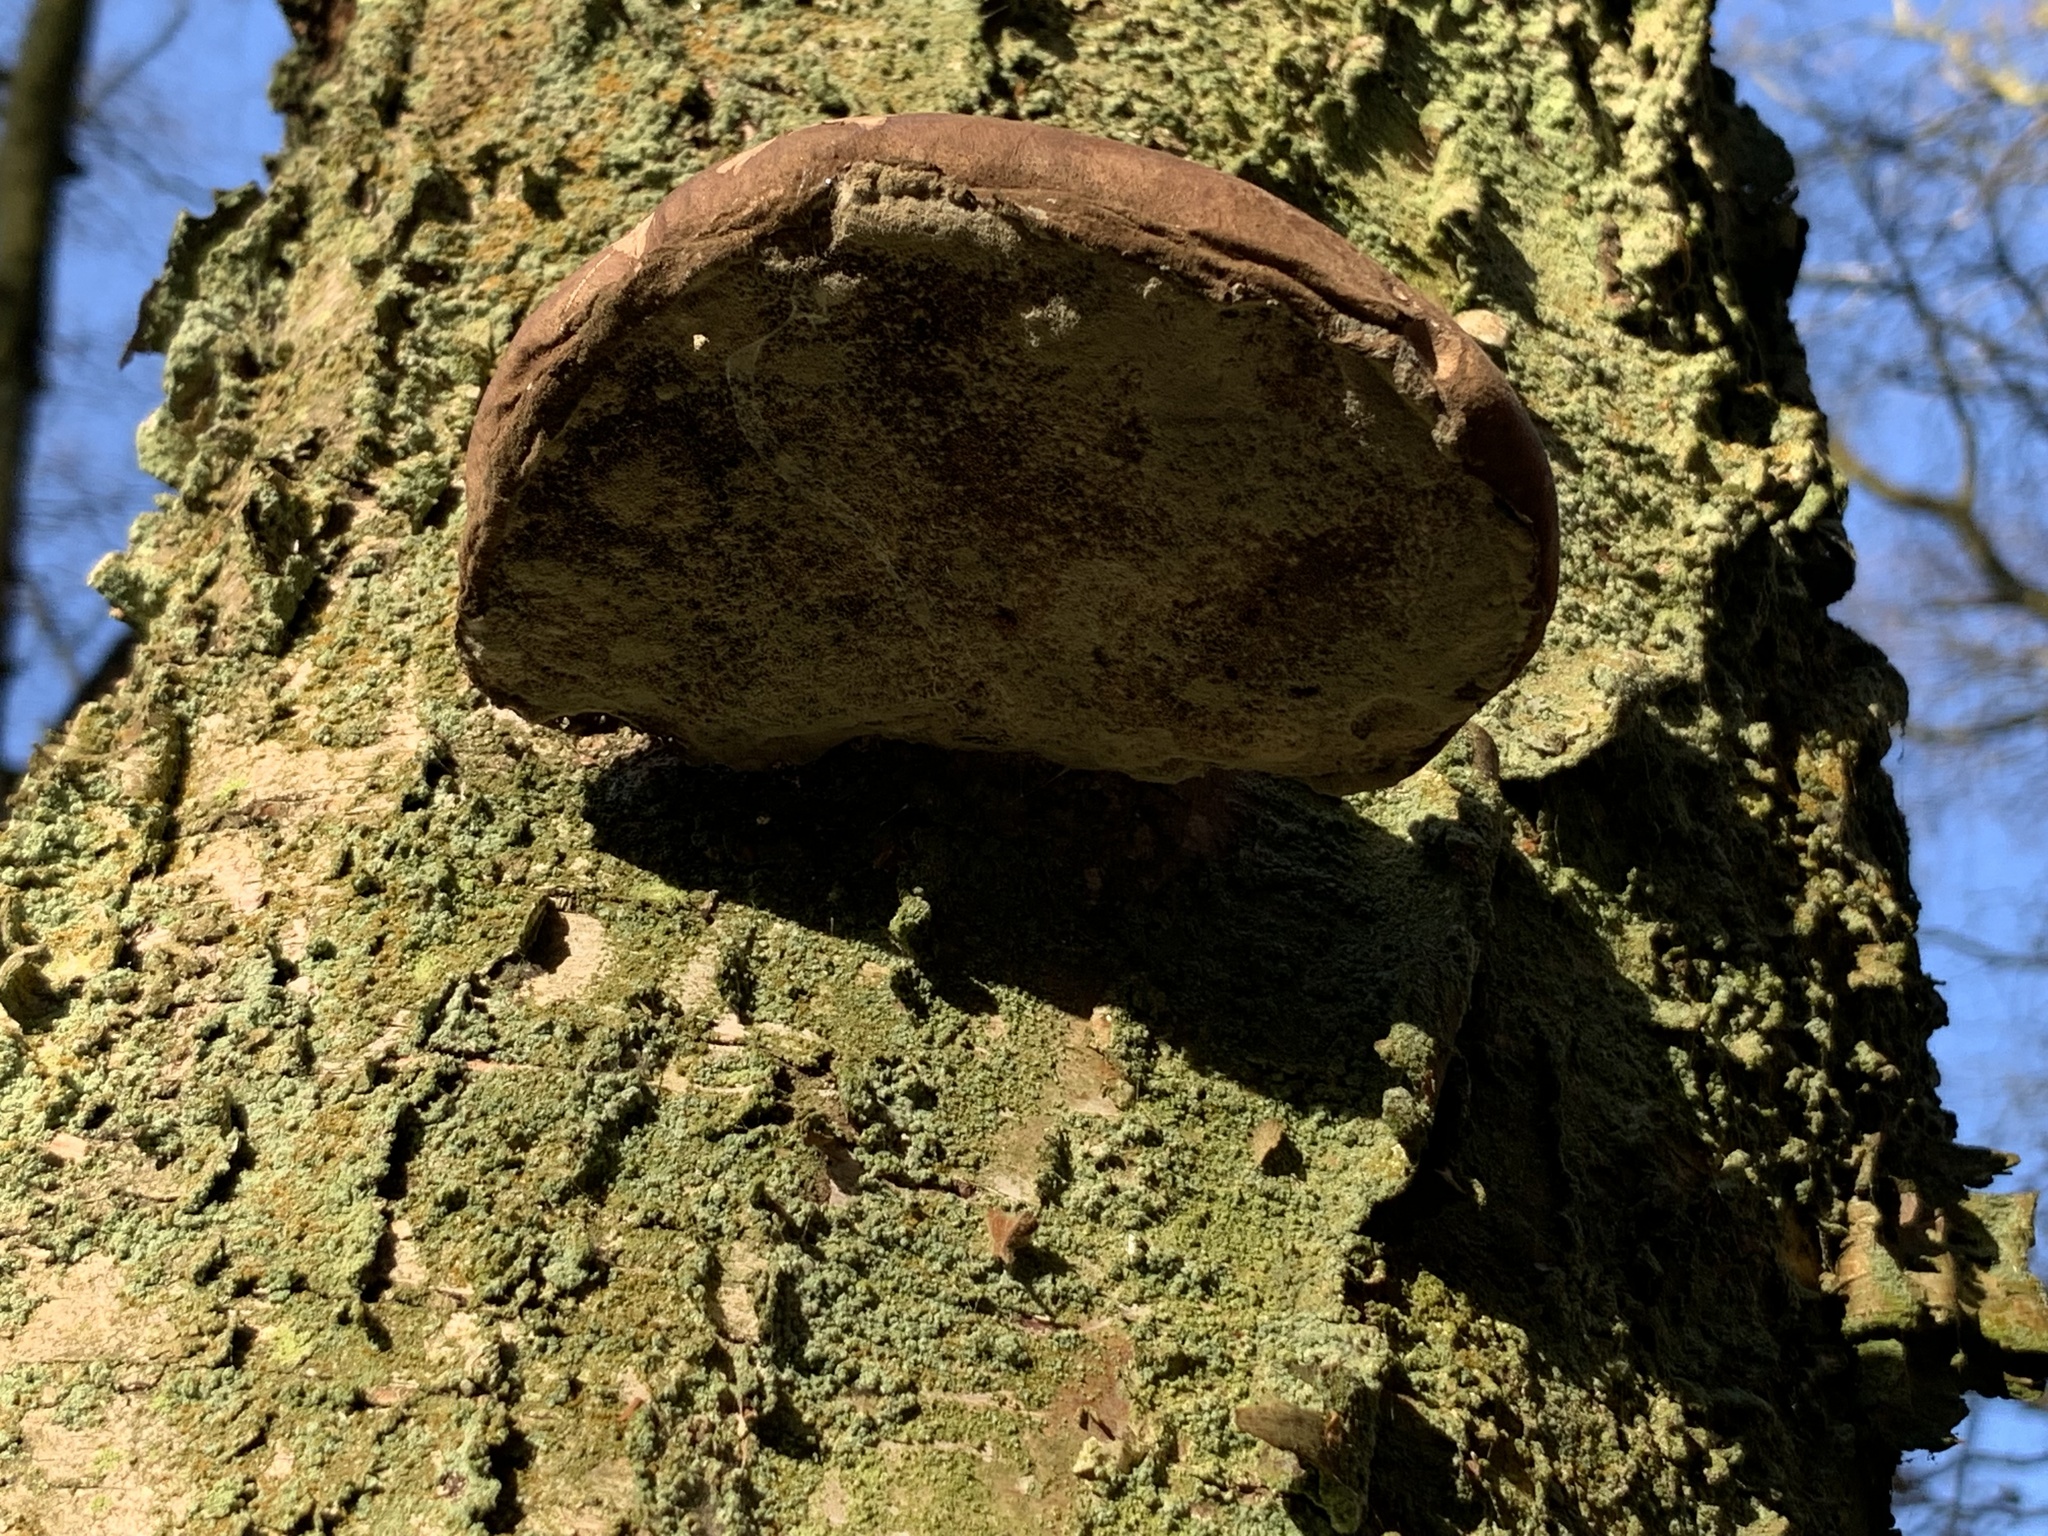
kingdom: Fungi
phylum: Basidiomycota
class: Agaricomycetes
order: Polyporales
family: Fomitopsidaceae
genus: Fomitopsis
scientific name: Fomitopsis betulina
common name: Birch polypore
